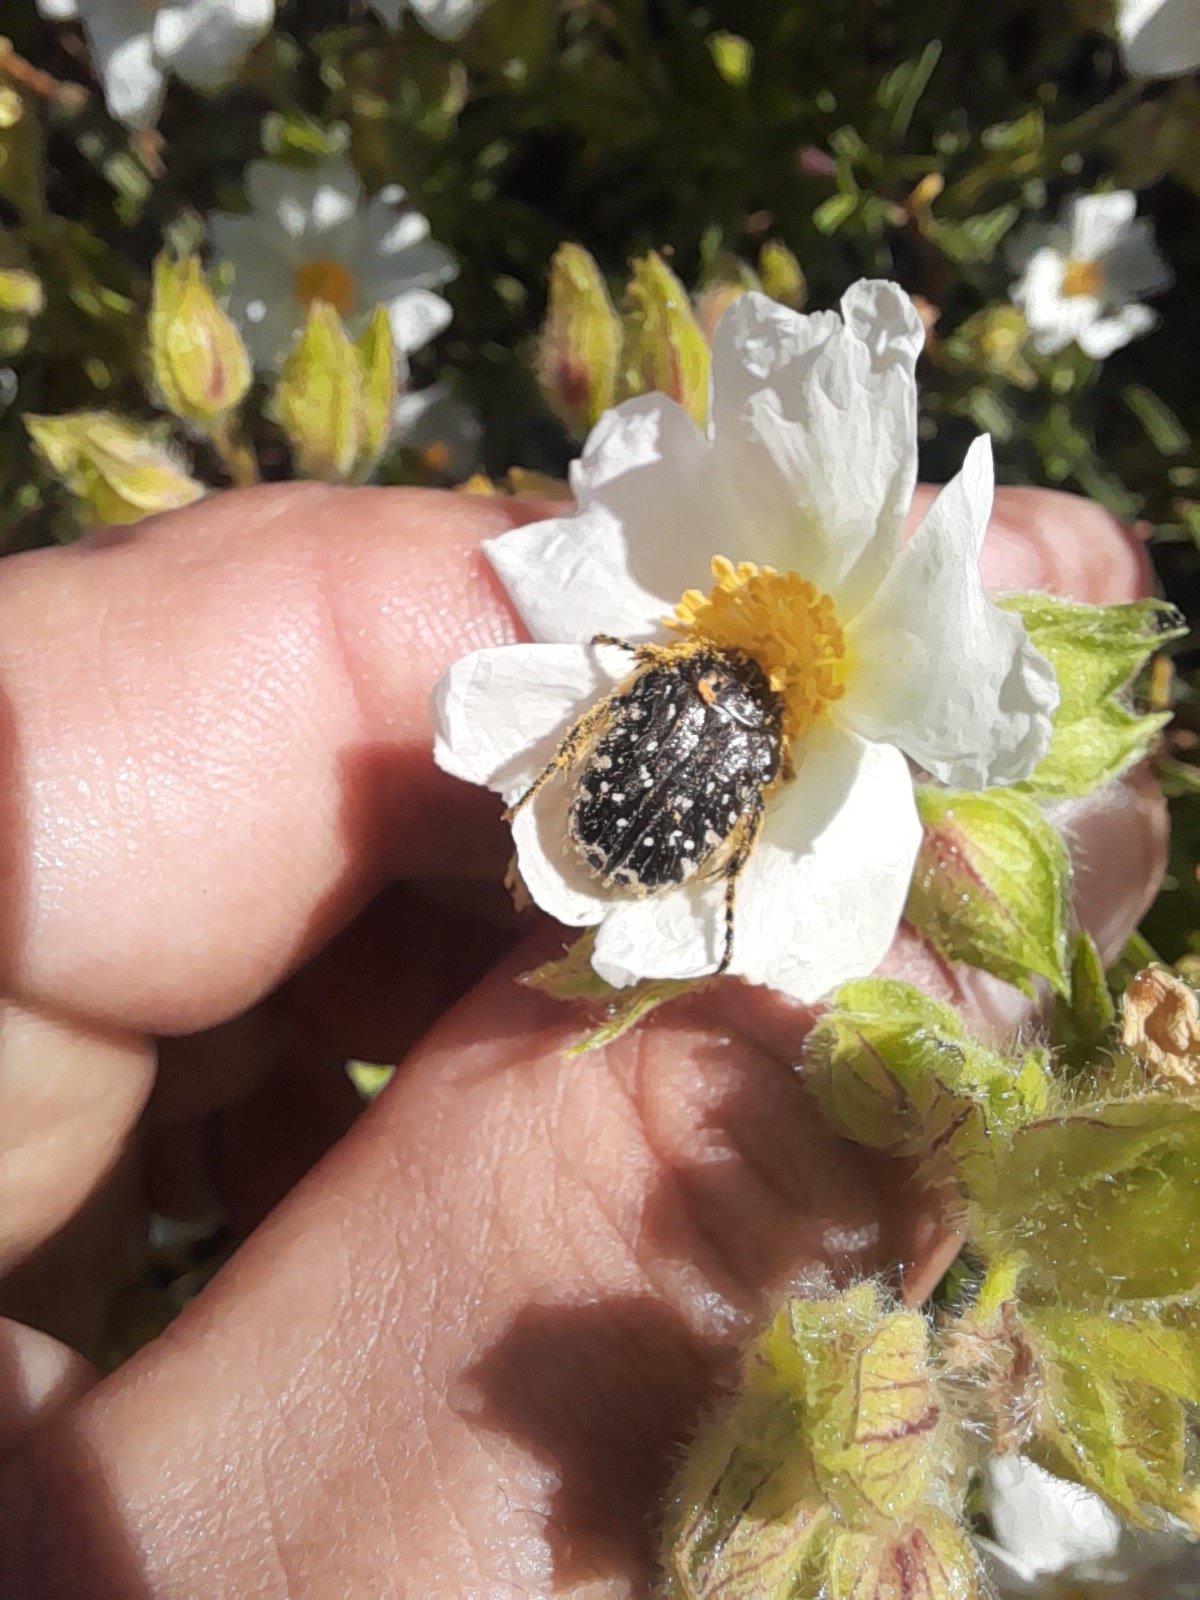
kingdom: Animalia
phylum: Arthropoda
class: Insecta
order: Coleoptera
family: Scarabaeidae
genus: Oxythyrea
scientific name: Oxythyrea funesta
